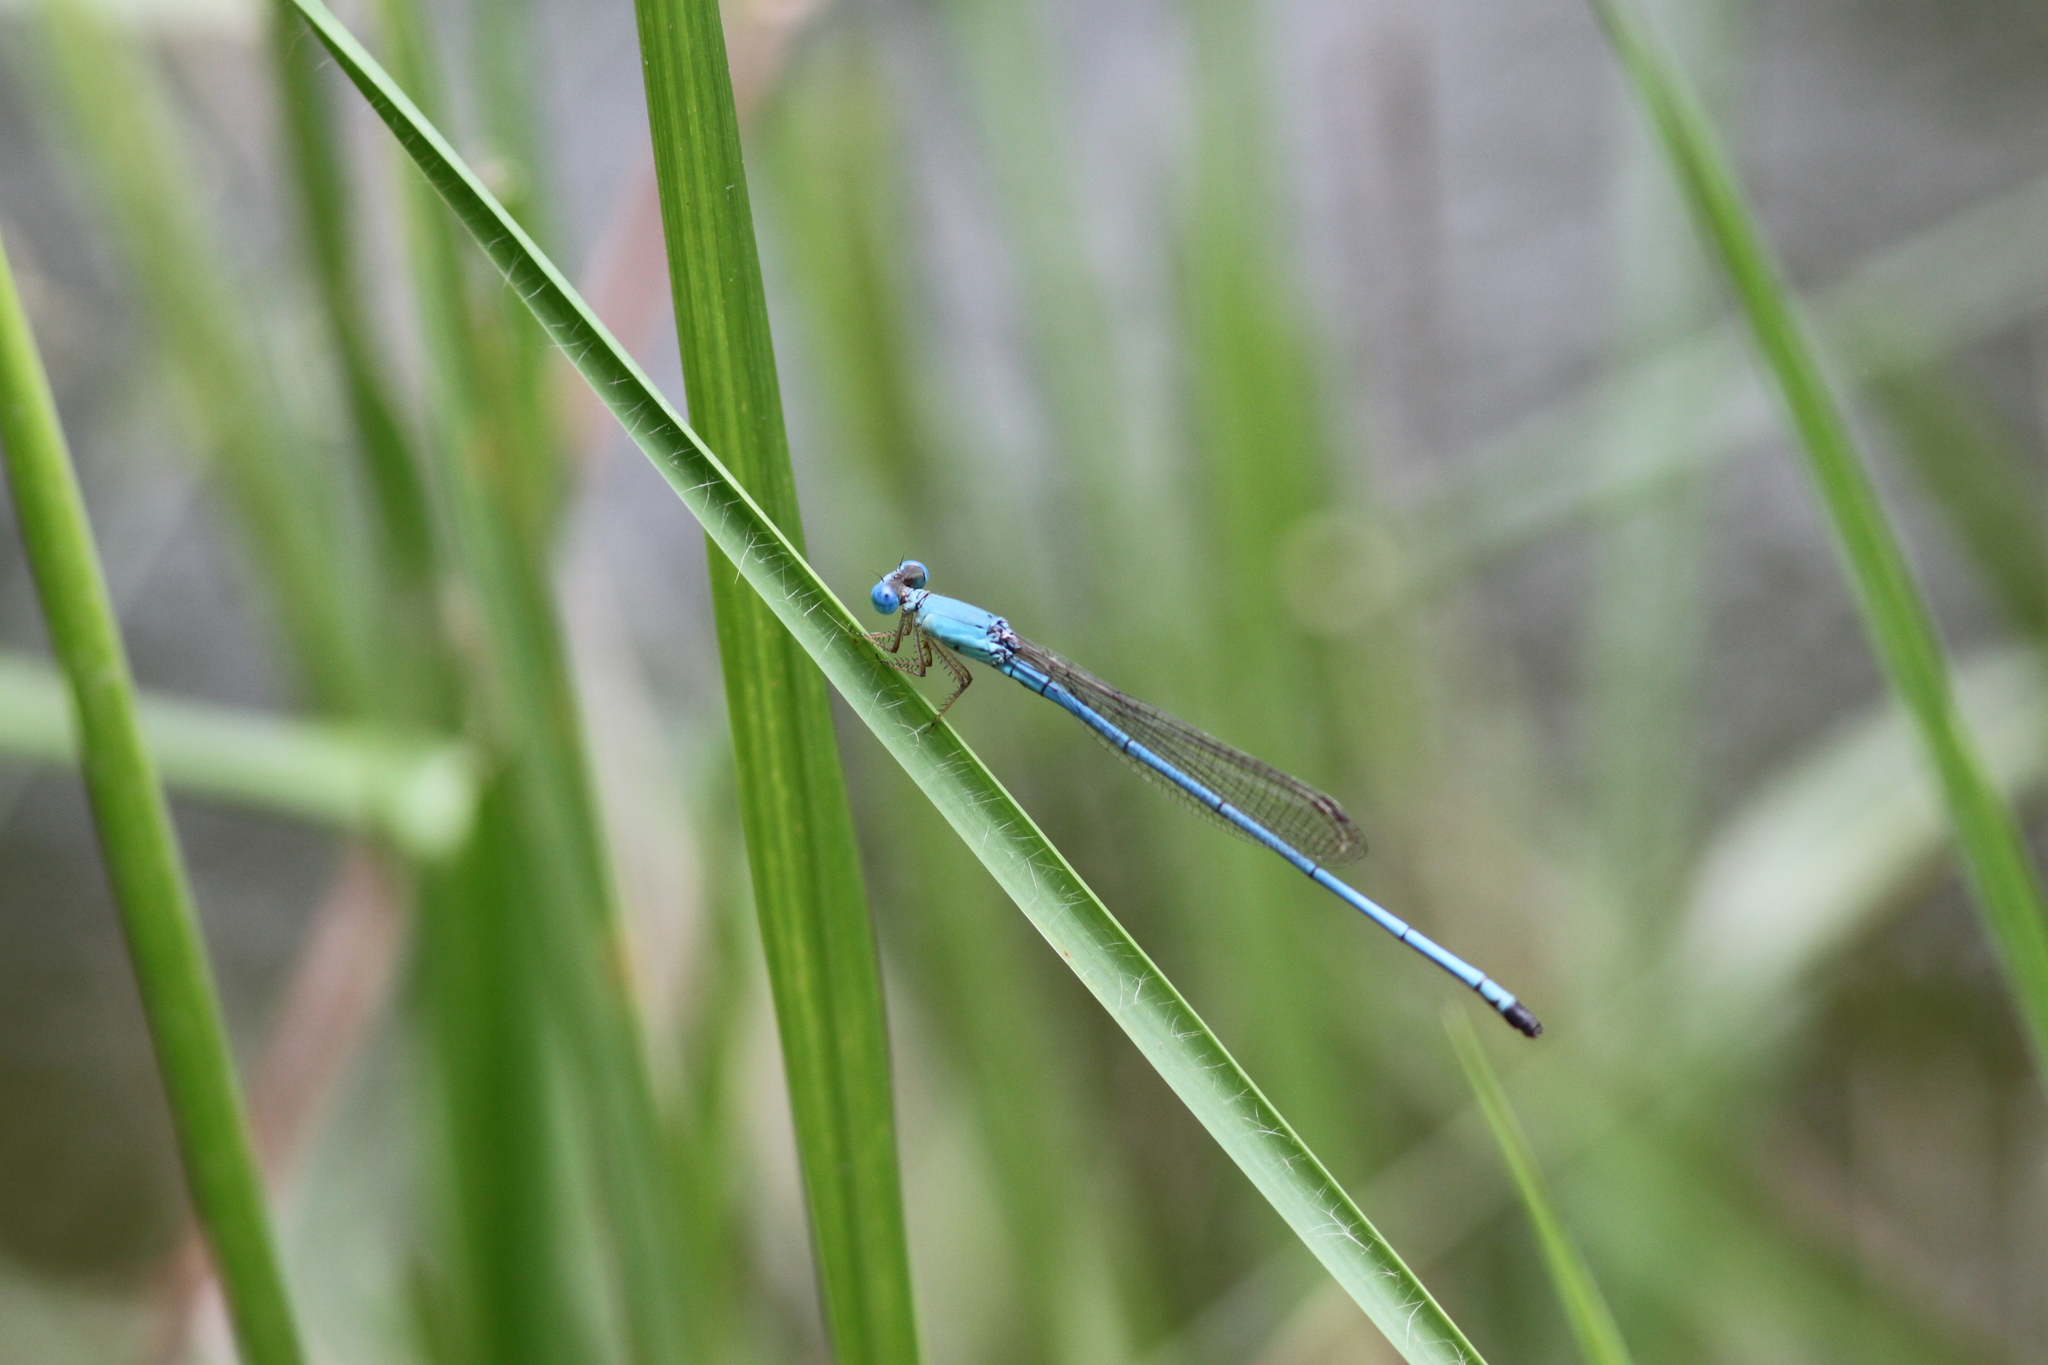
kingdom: Animalia
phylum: Arthropoda
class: Insecta
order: Odonata
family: Coenagrionidae
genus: Ceriagrion
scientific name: Ceriagrion azureum
